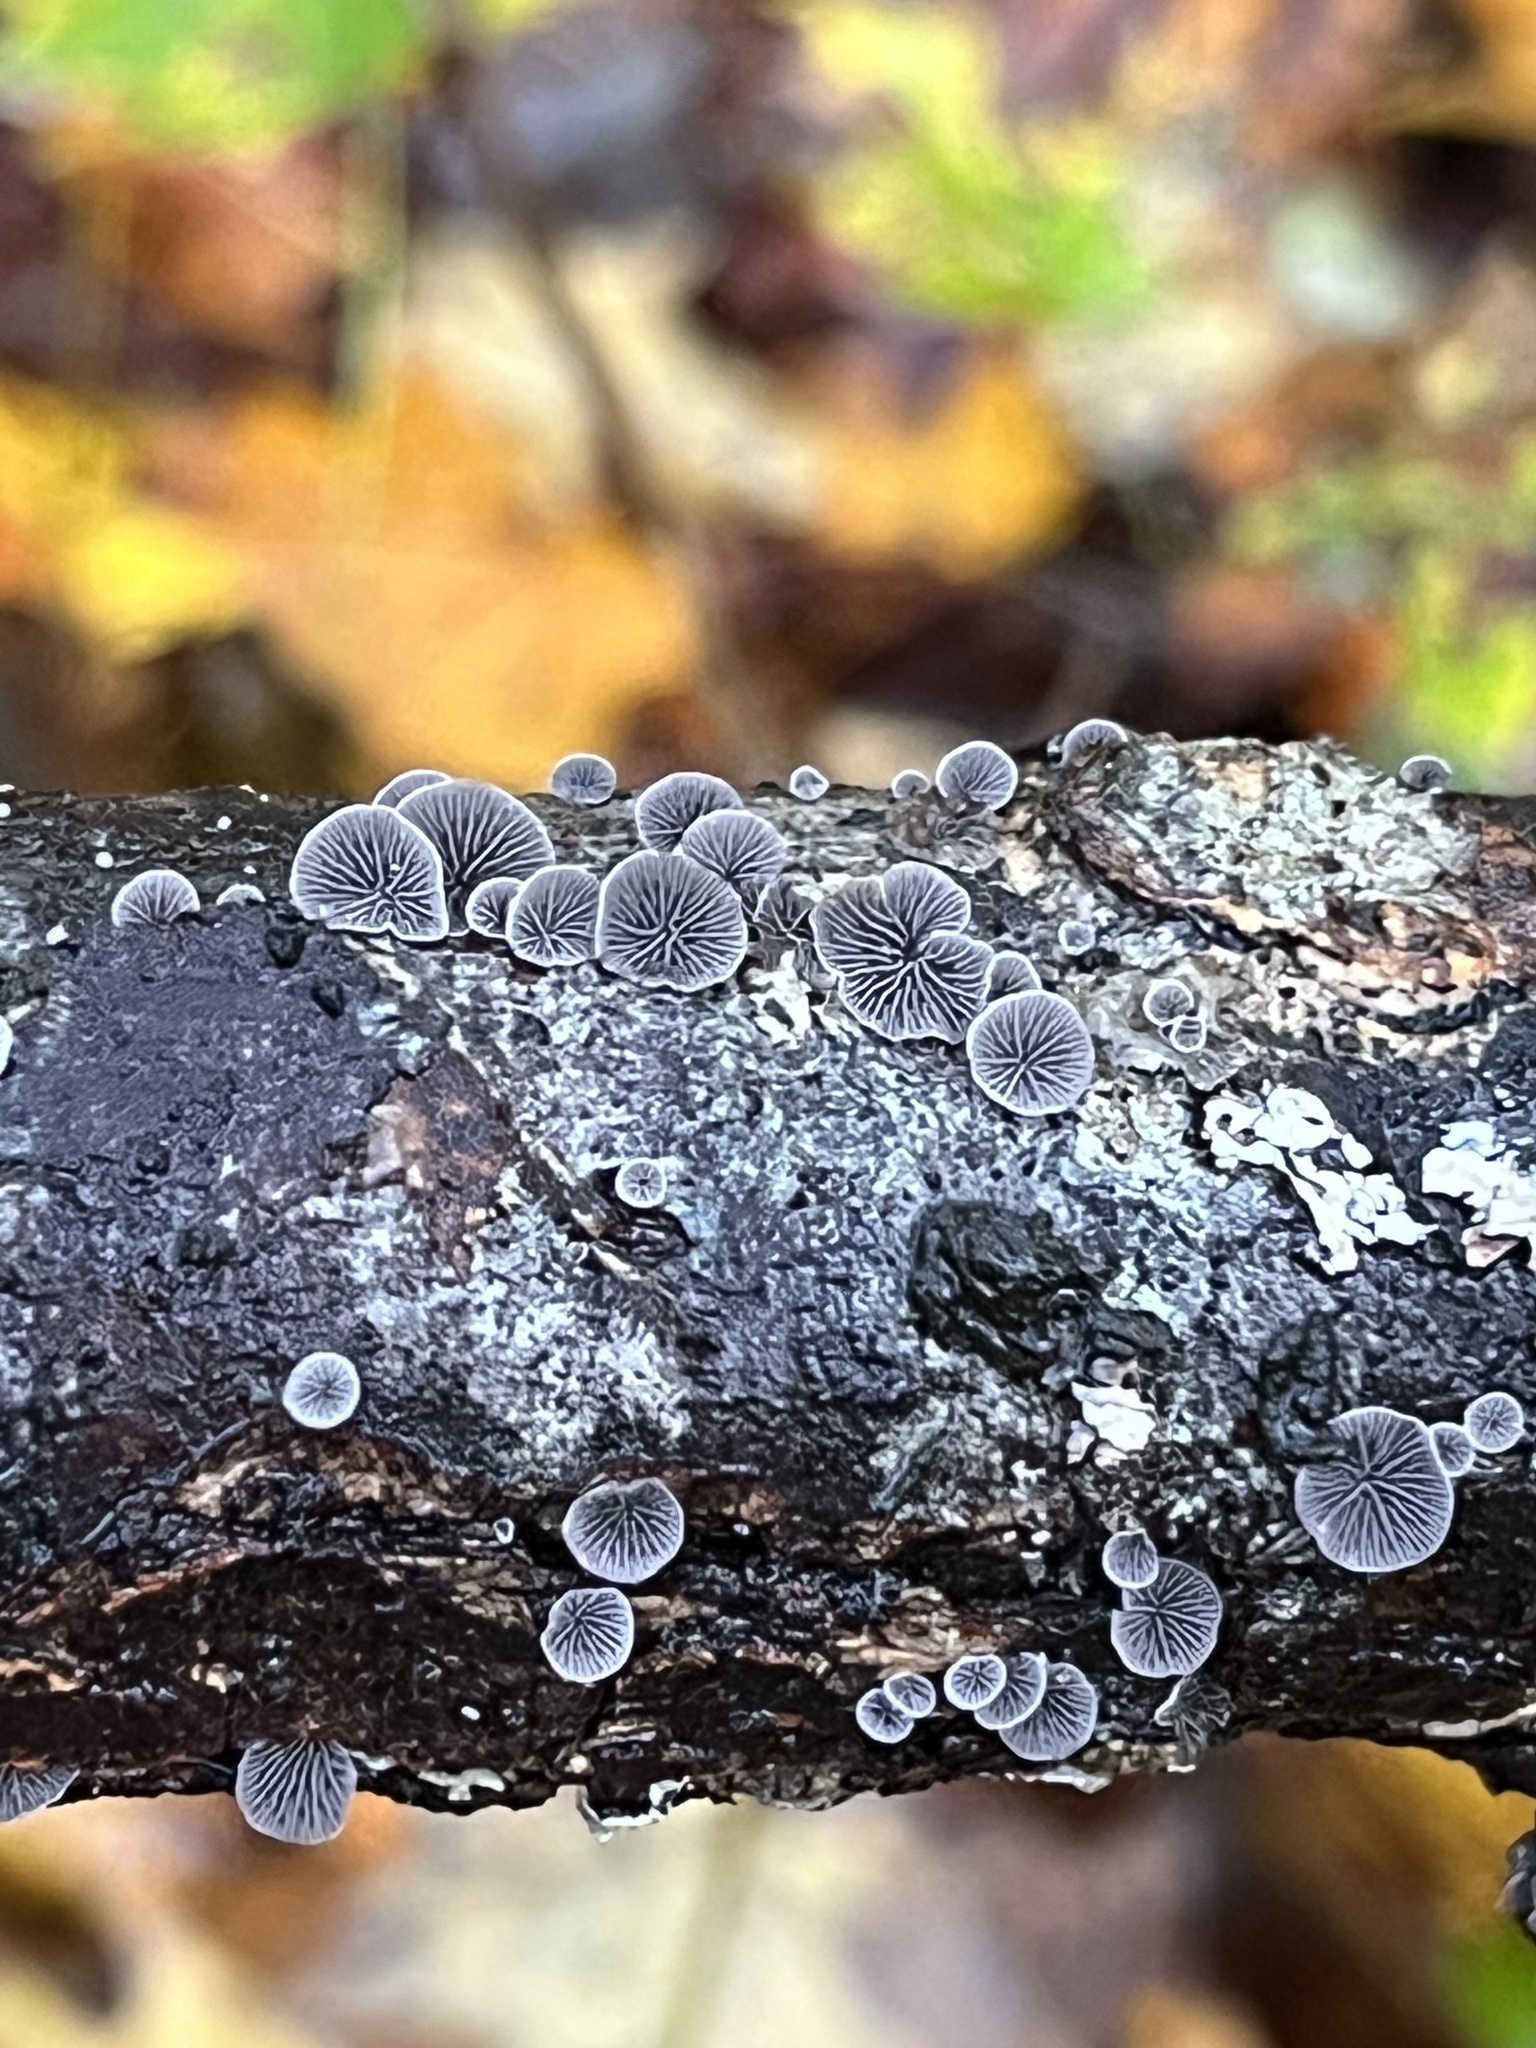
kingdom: Fungi
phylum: Basidiomycota
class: Agaricomycetes
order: Agaricales
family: Pleurotaceae
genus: Resupinatus
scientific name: Resupinatus applicatus
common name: Smoked oysterling
